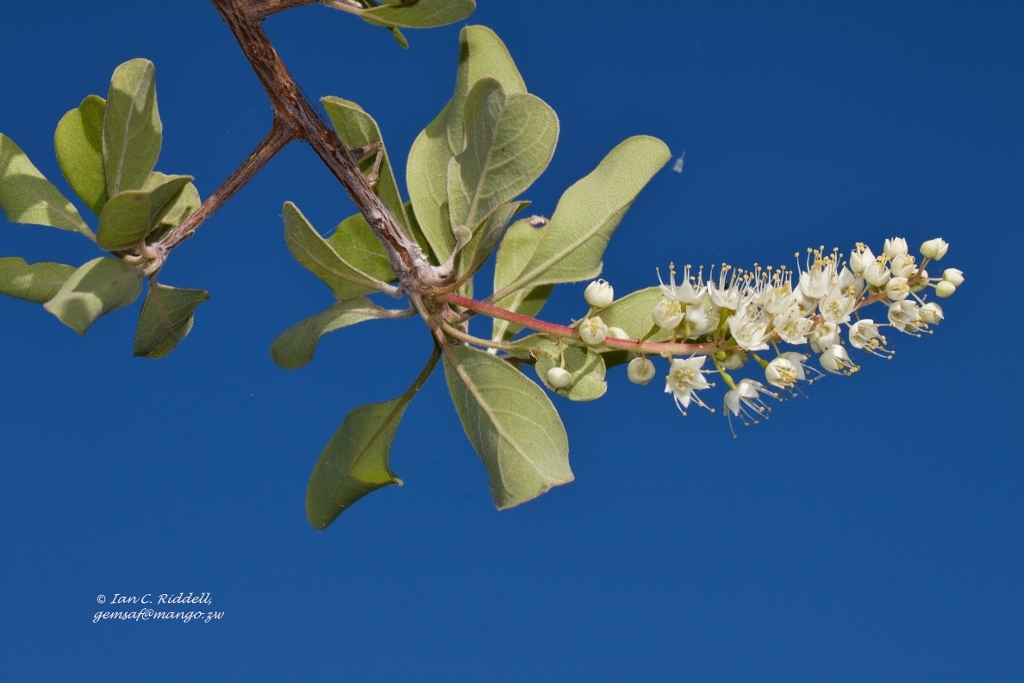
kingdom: Plantae
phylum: Tracheophyta
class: Magnoliopsida
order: Myrtales
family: Combretaceae
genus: Terminalia
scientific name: Terminalia prunioides
